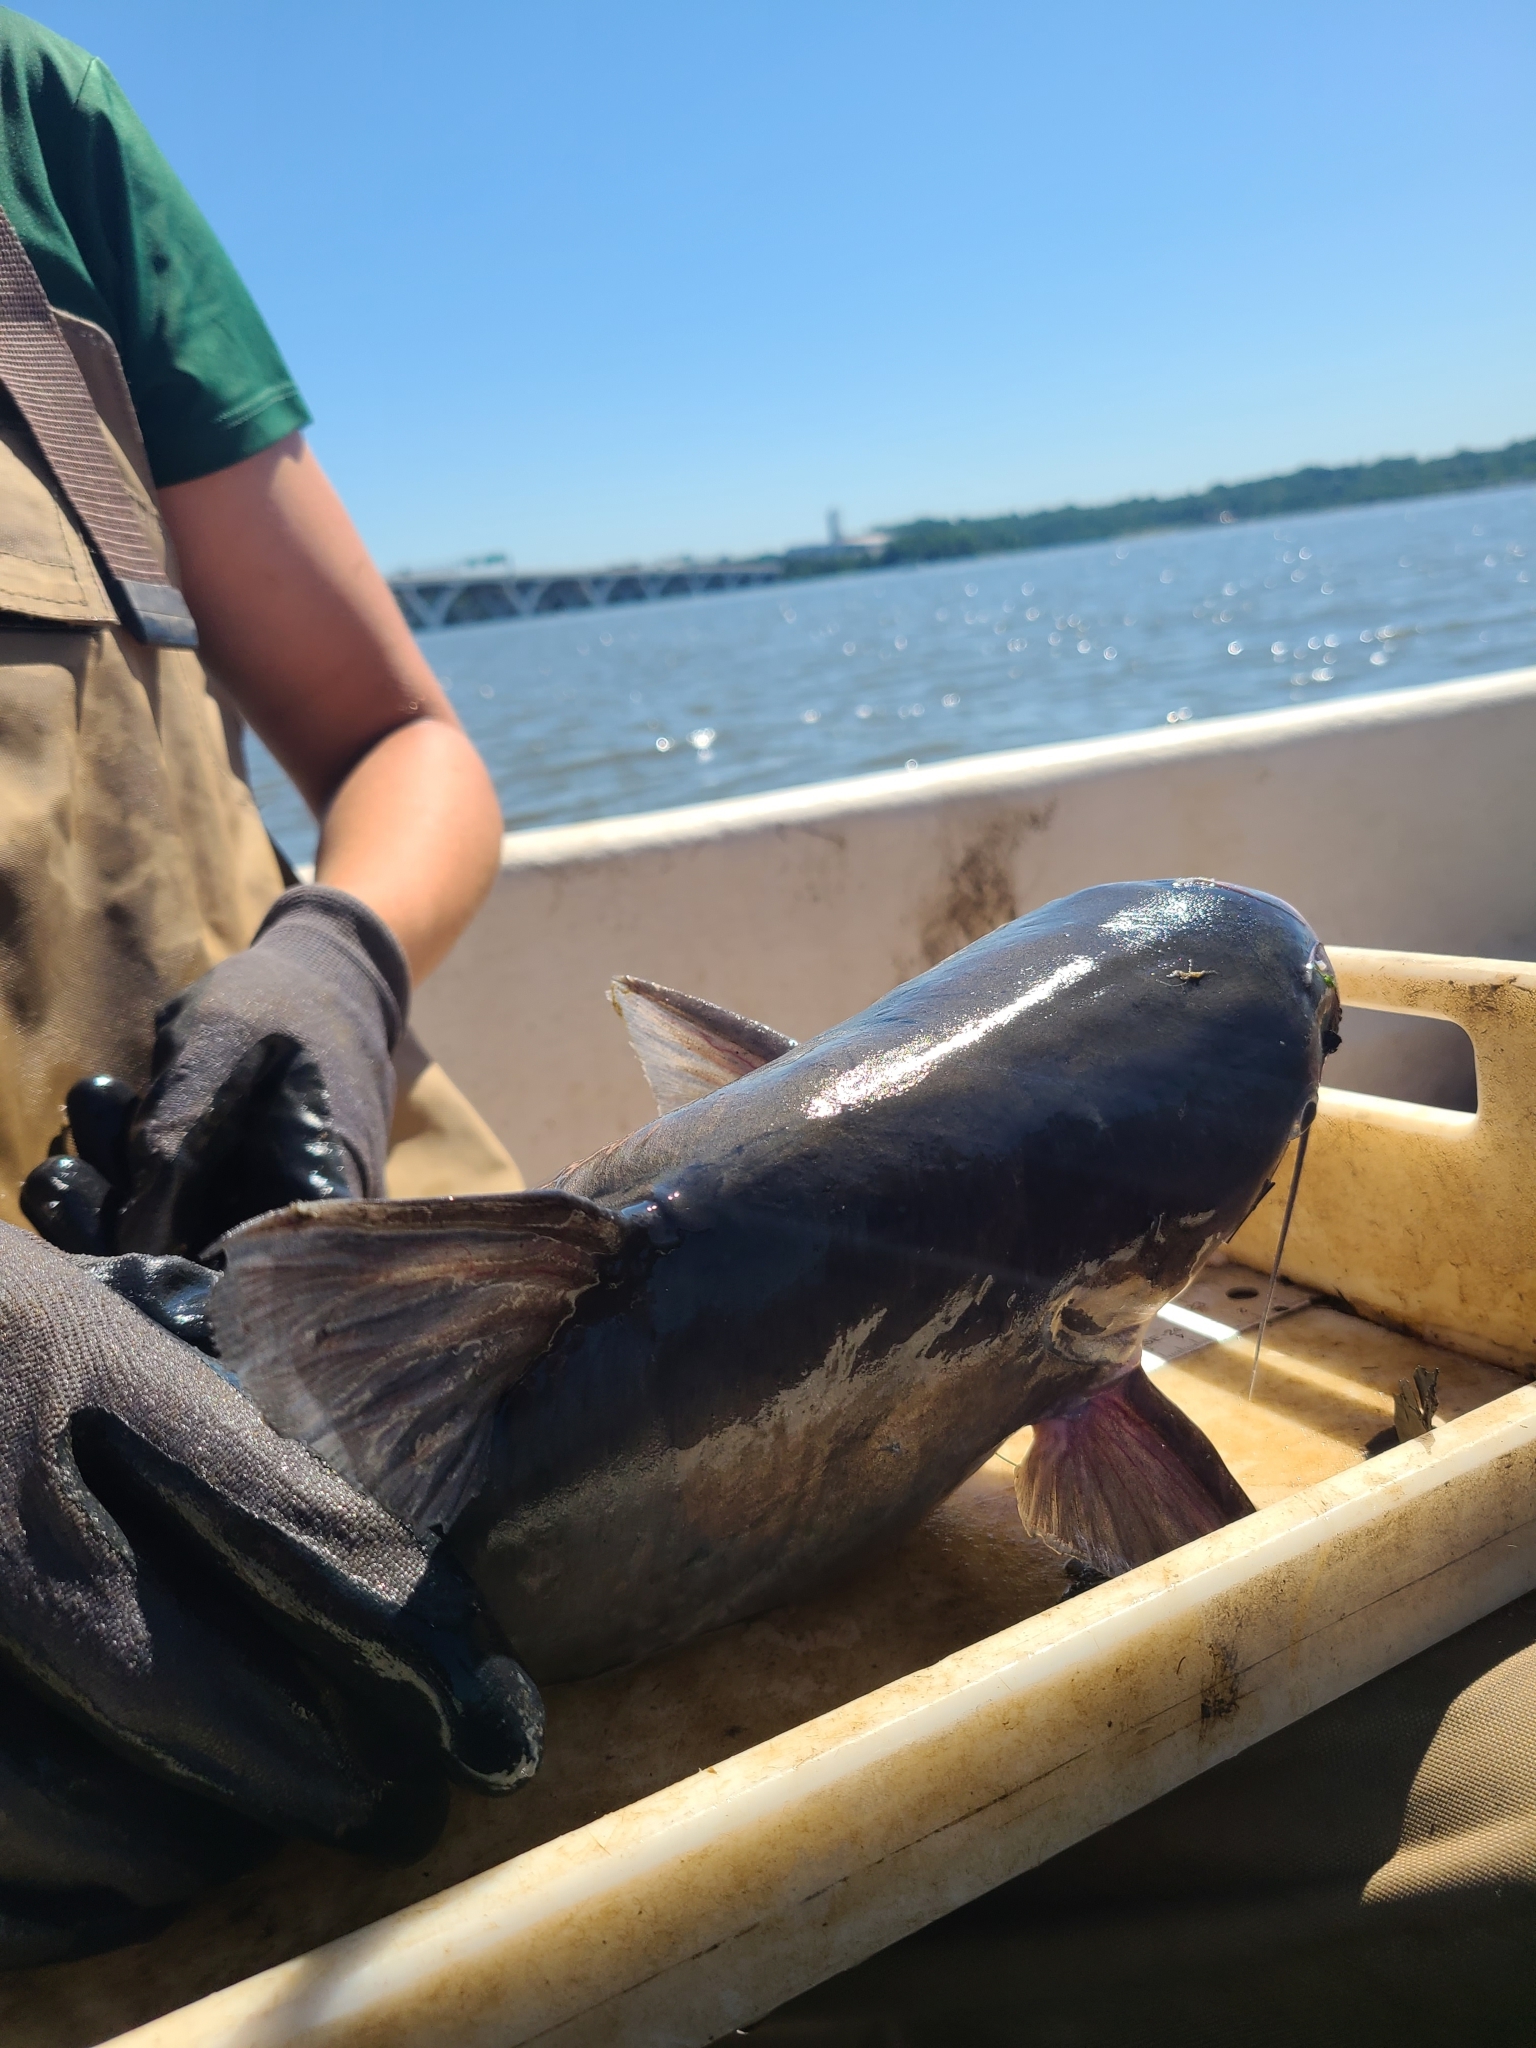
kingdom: Animalia
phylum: Chordata
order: Siluriformes
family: Ictaluridae
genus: Ictalurus
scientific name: Ictalurus furcatus
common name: Blue catfish
